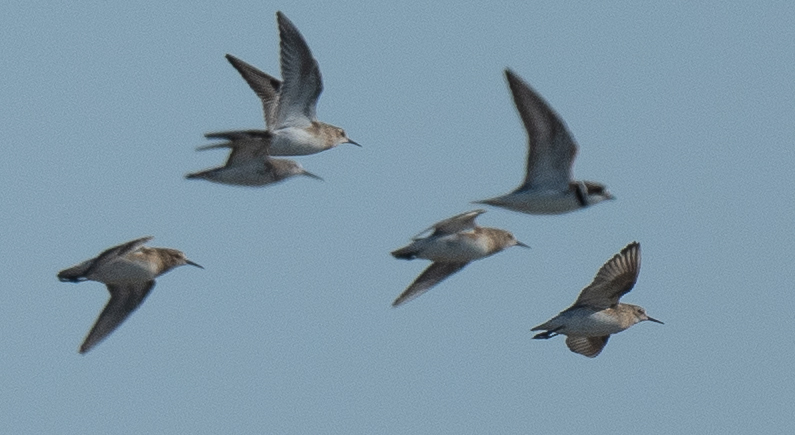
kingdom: Animalia
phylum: Chordata
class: Aves
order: Charadriiformes
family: Scolopacidae
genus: Calidris
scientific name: Calidris bairdii
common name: Baird's sandpiper
